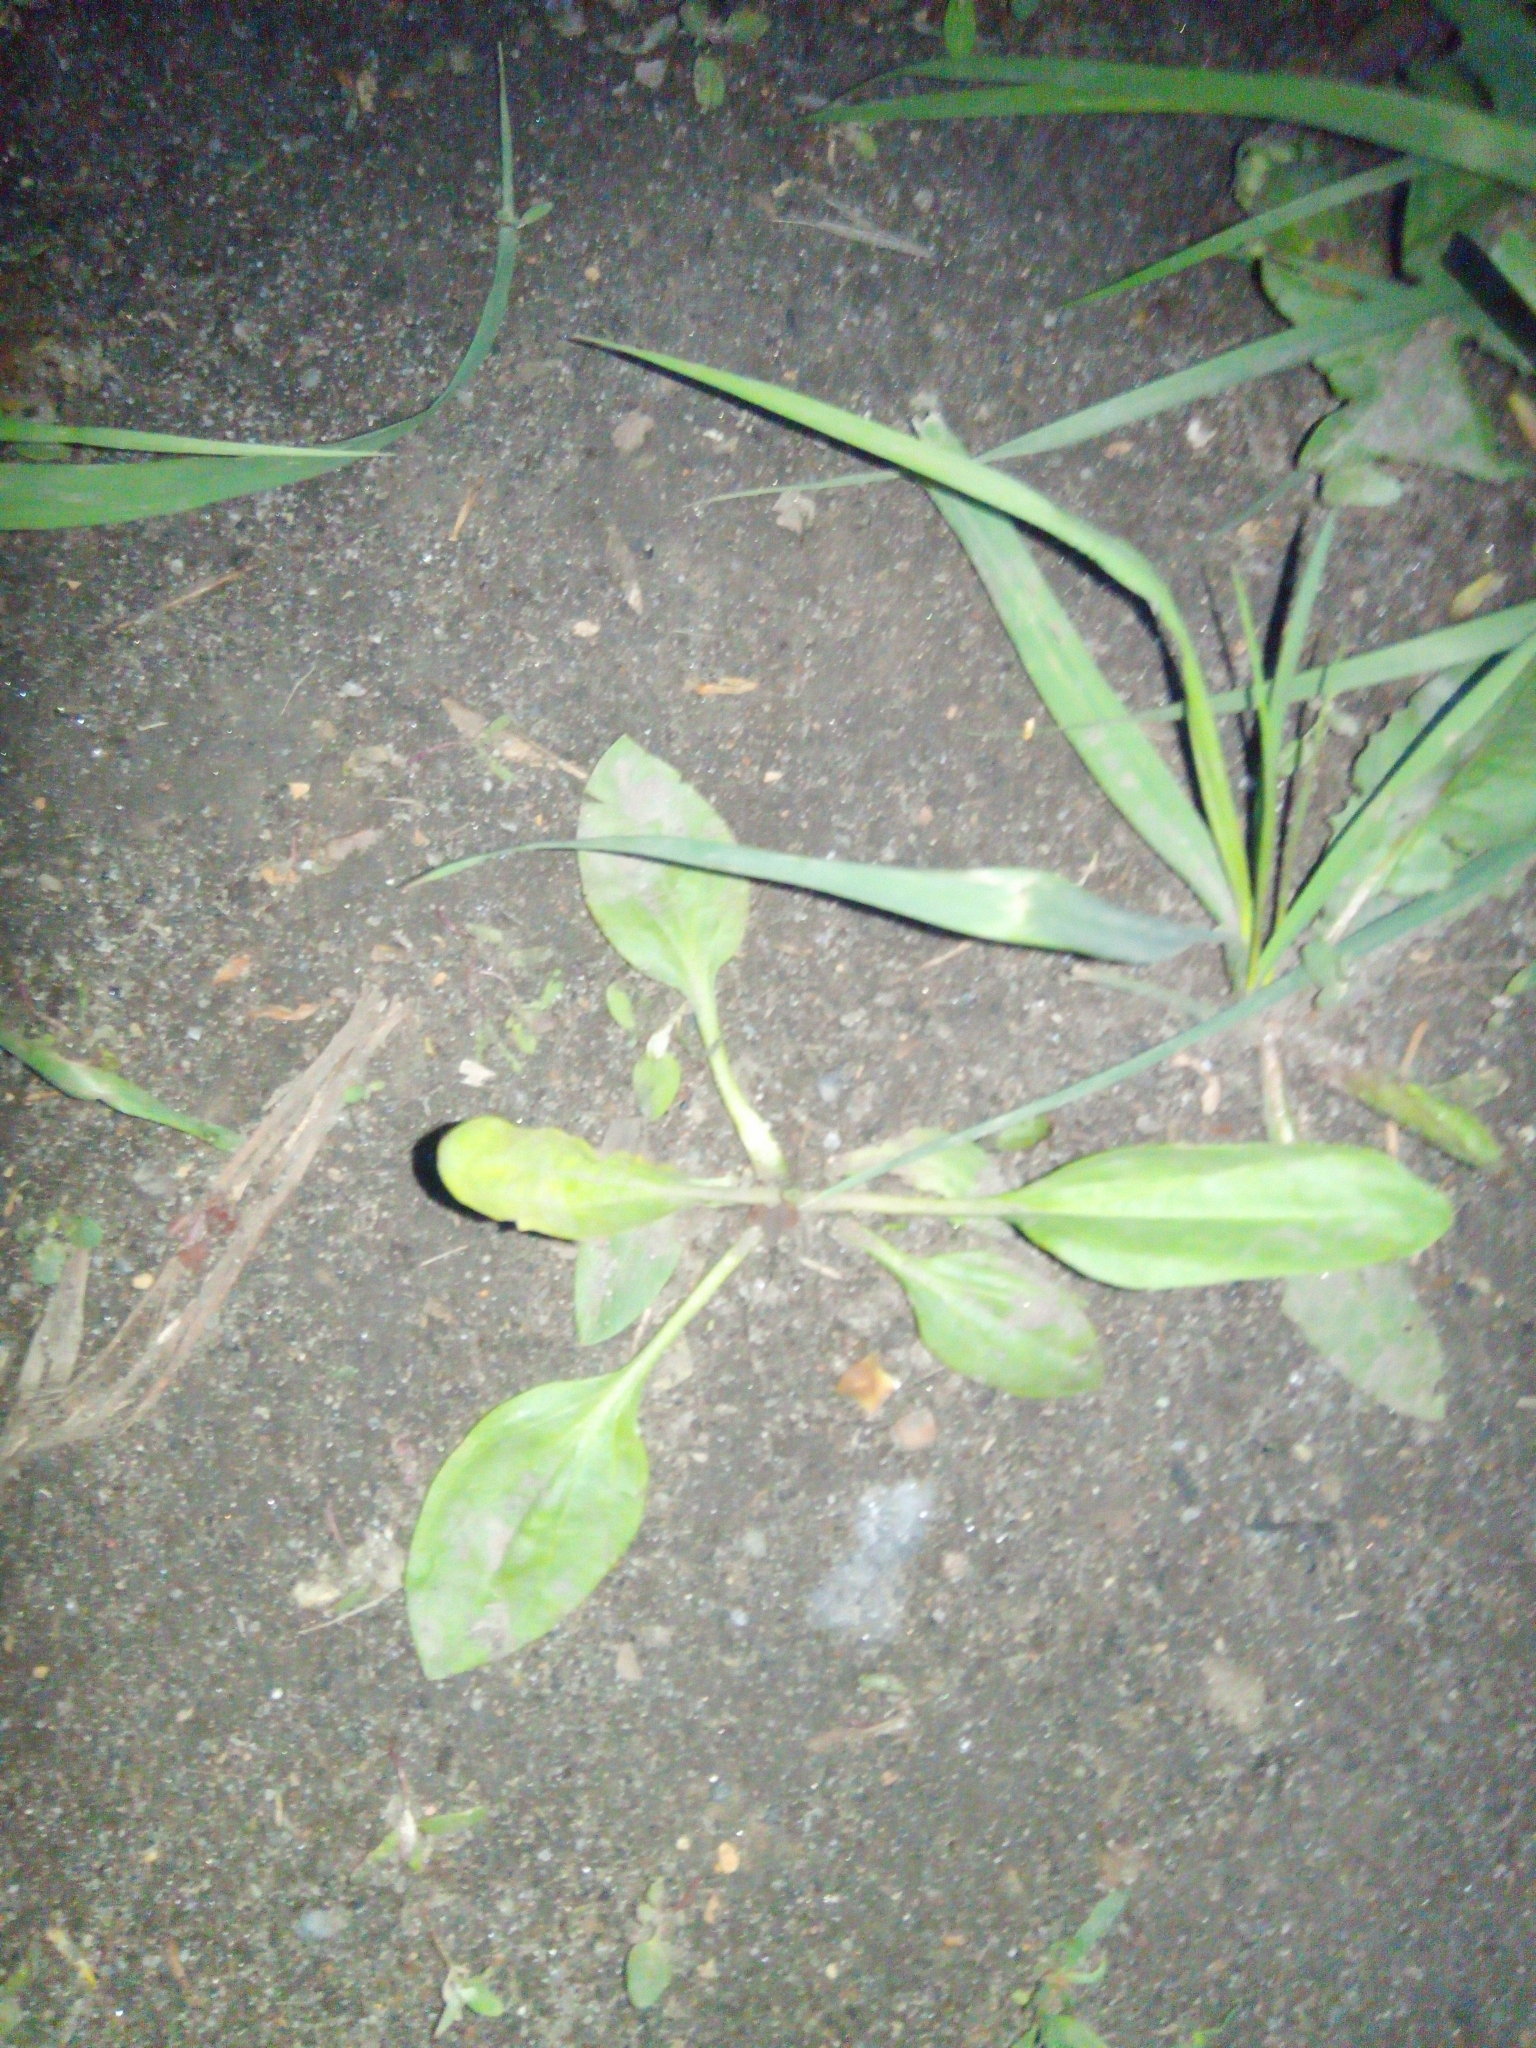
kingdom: Plantae
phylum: Tracheophyta
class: Magnoliopsida
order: Lamiales
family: Plantaginaceae
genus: Plantago
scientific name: Plantago major
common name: Common plantain
